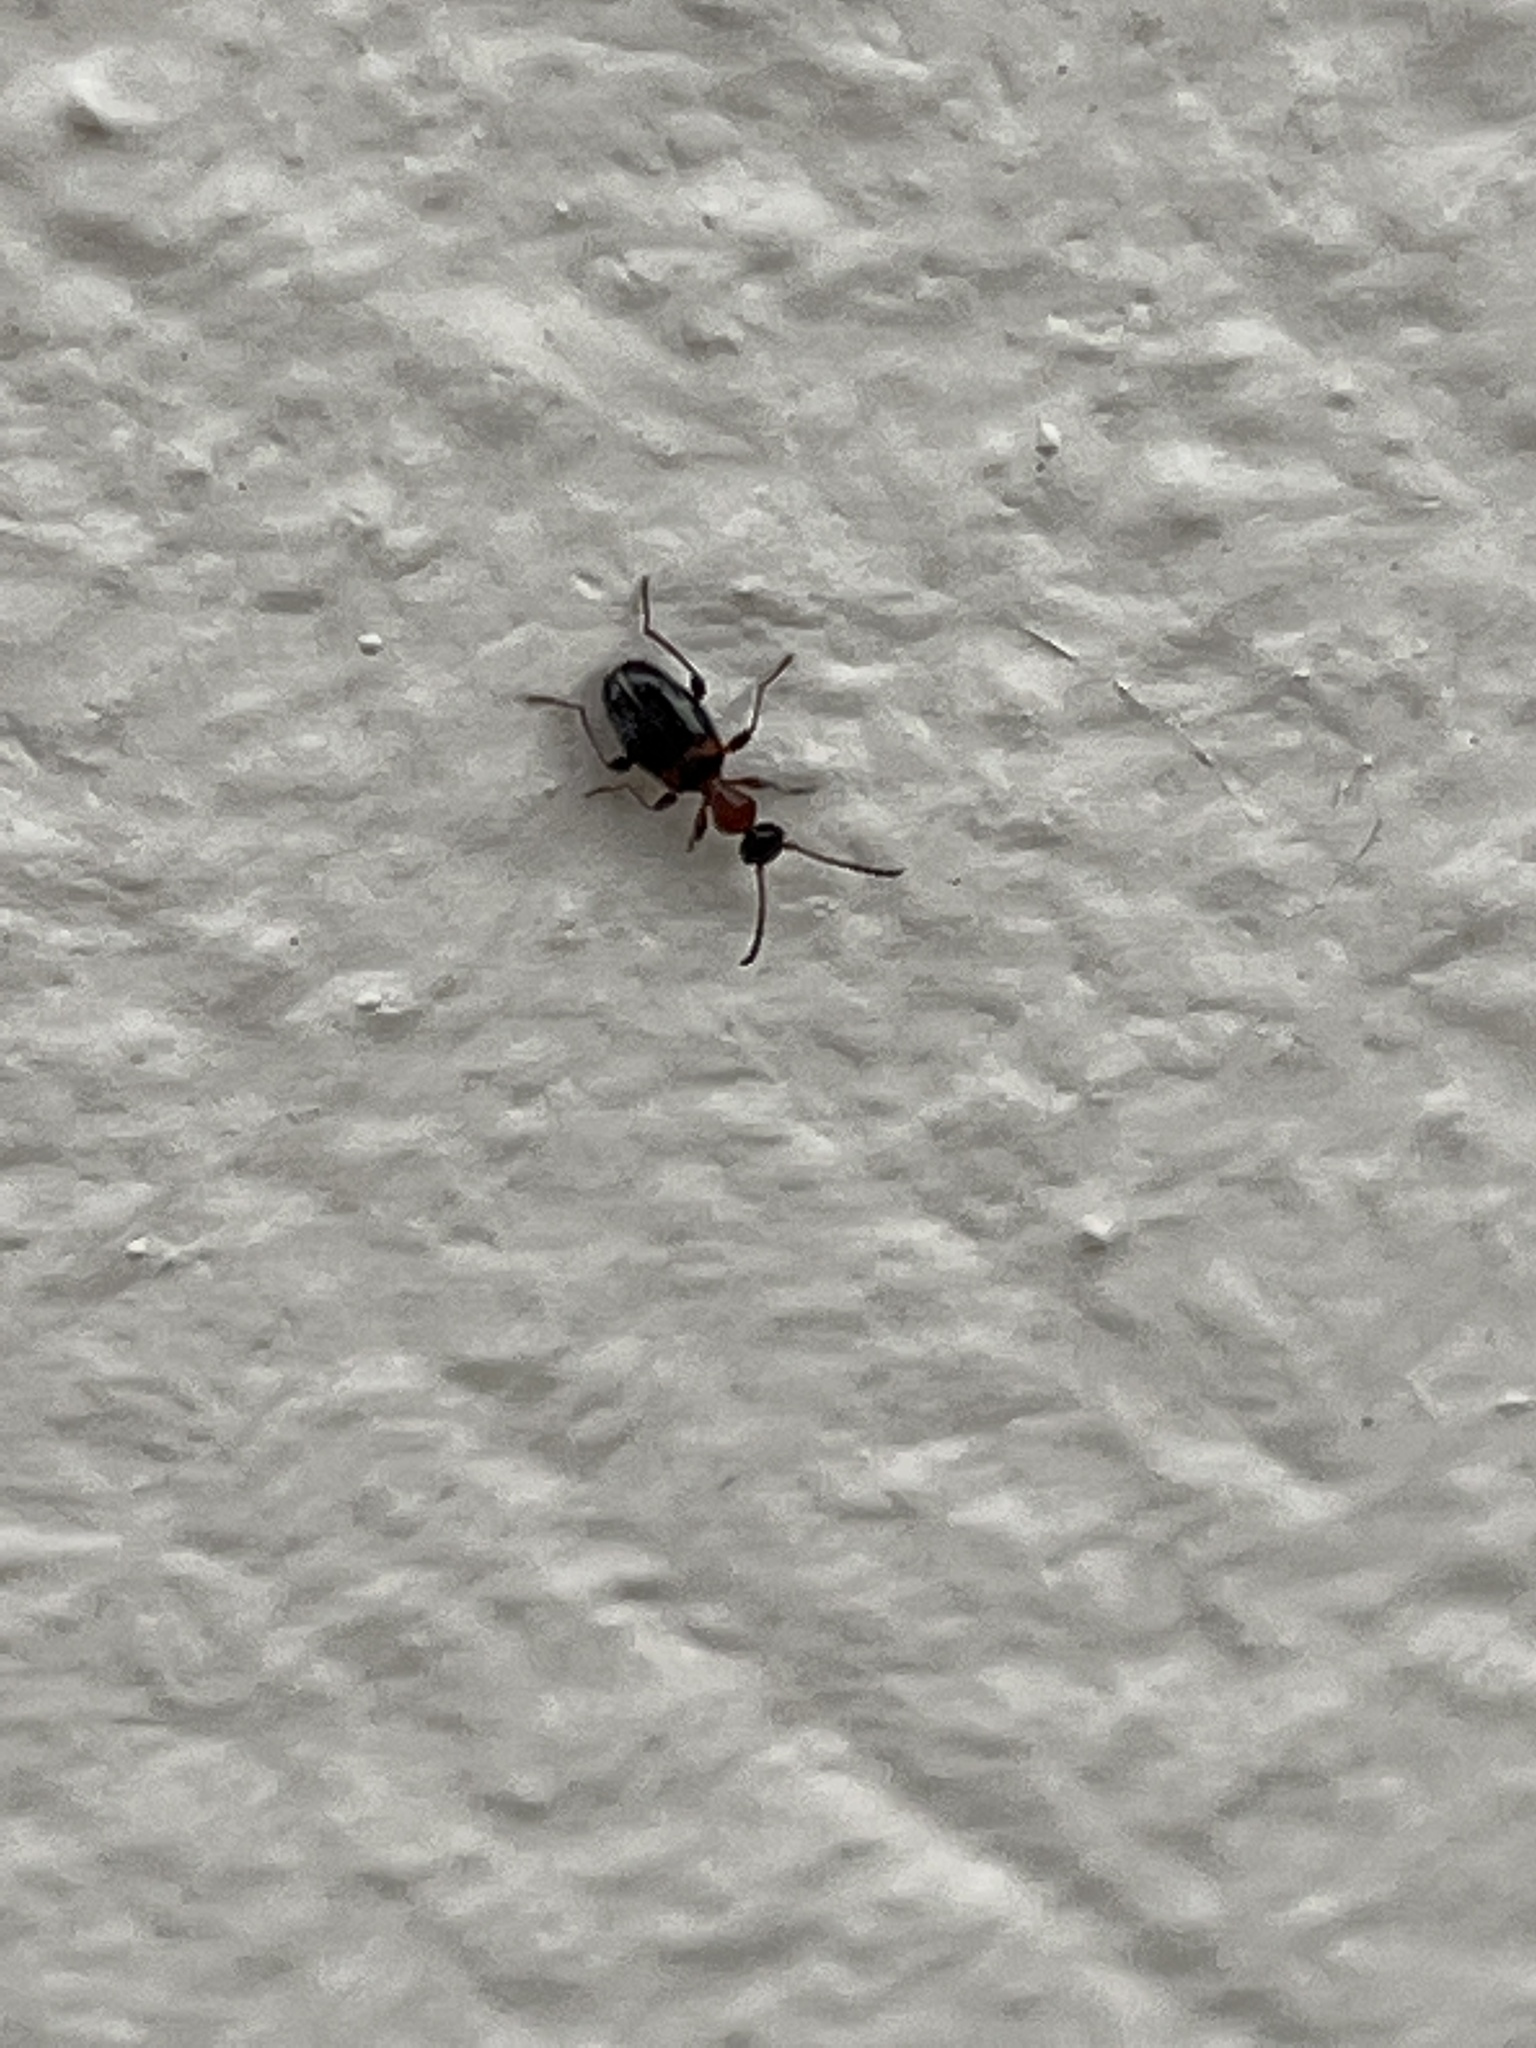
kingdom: Animalia
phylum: Arthropoda
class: Insecta
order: Coleoptera
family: Anthicidae
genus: Anthelephila
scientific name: Anthelephila pedestris
